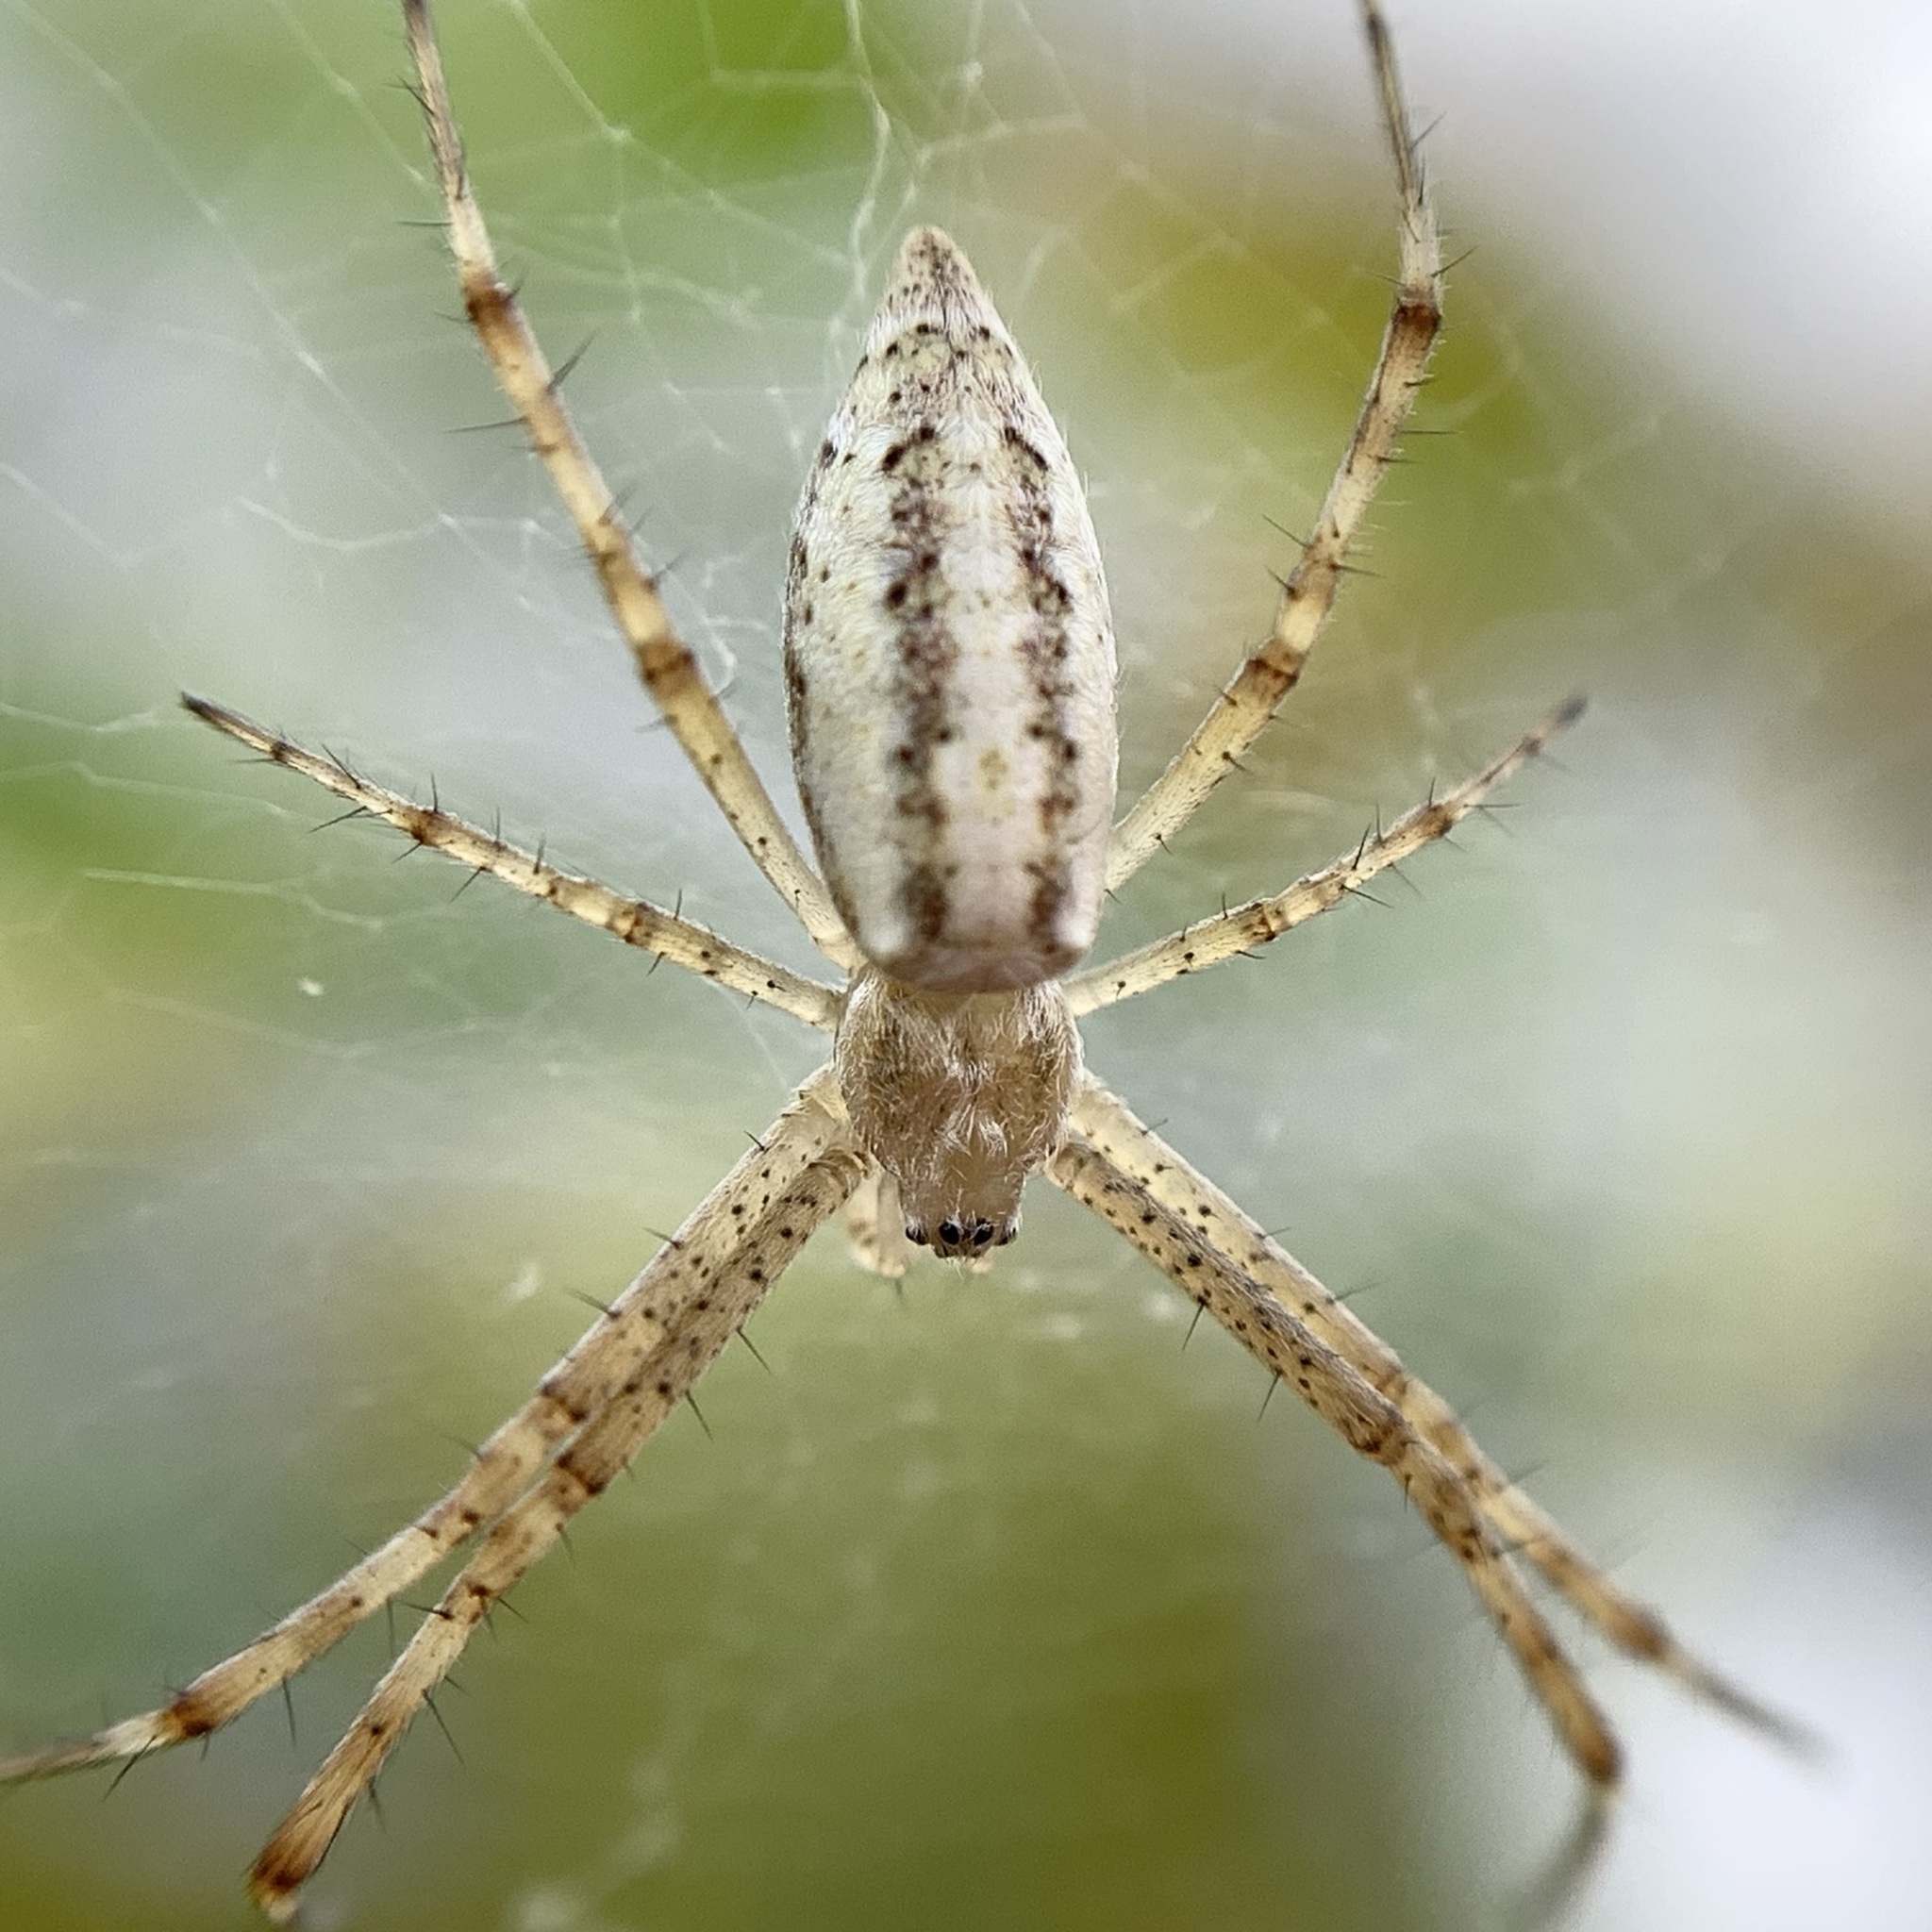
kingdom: Animalia
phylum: Arthropoda
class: Arachnida
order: Araneae
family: Araneidae
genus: Argiope
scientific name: Argiope bruennichi
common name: Wasp spider
